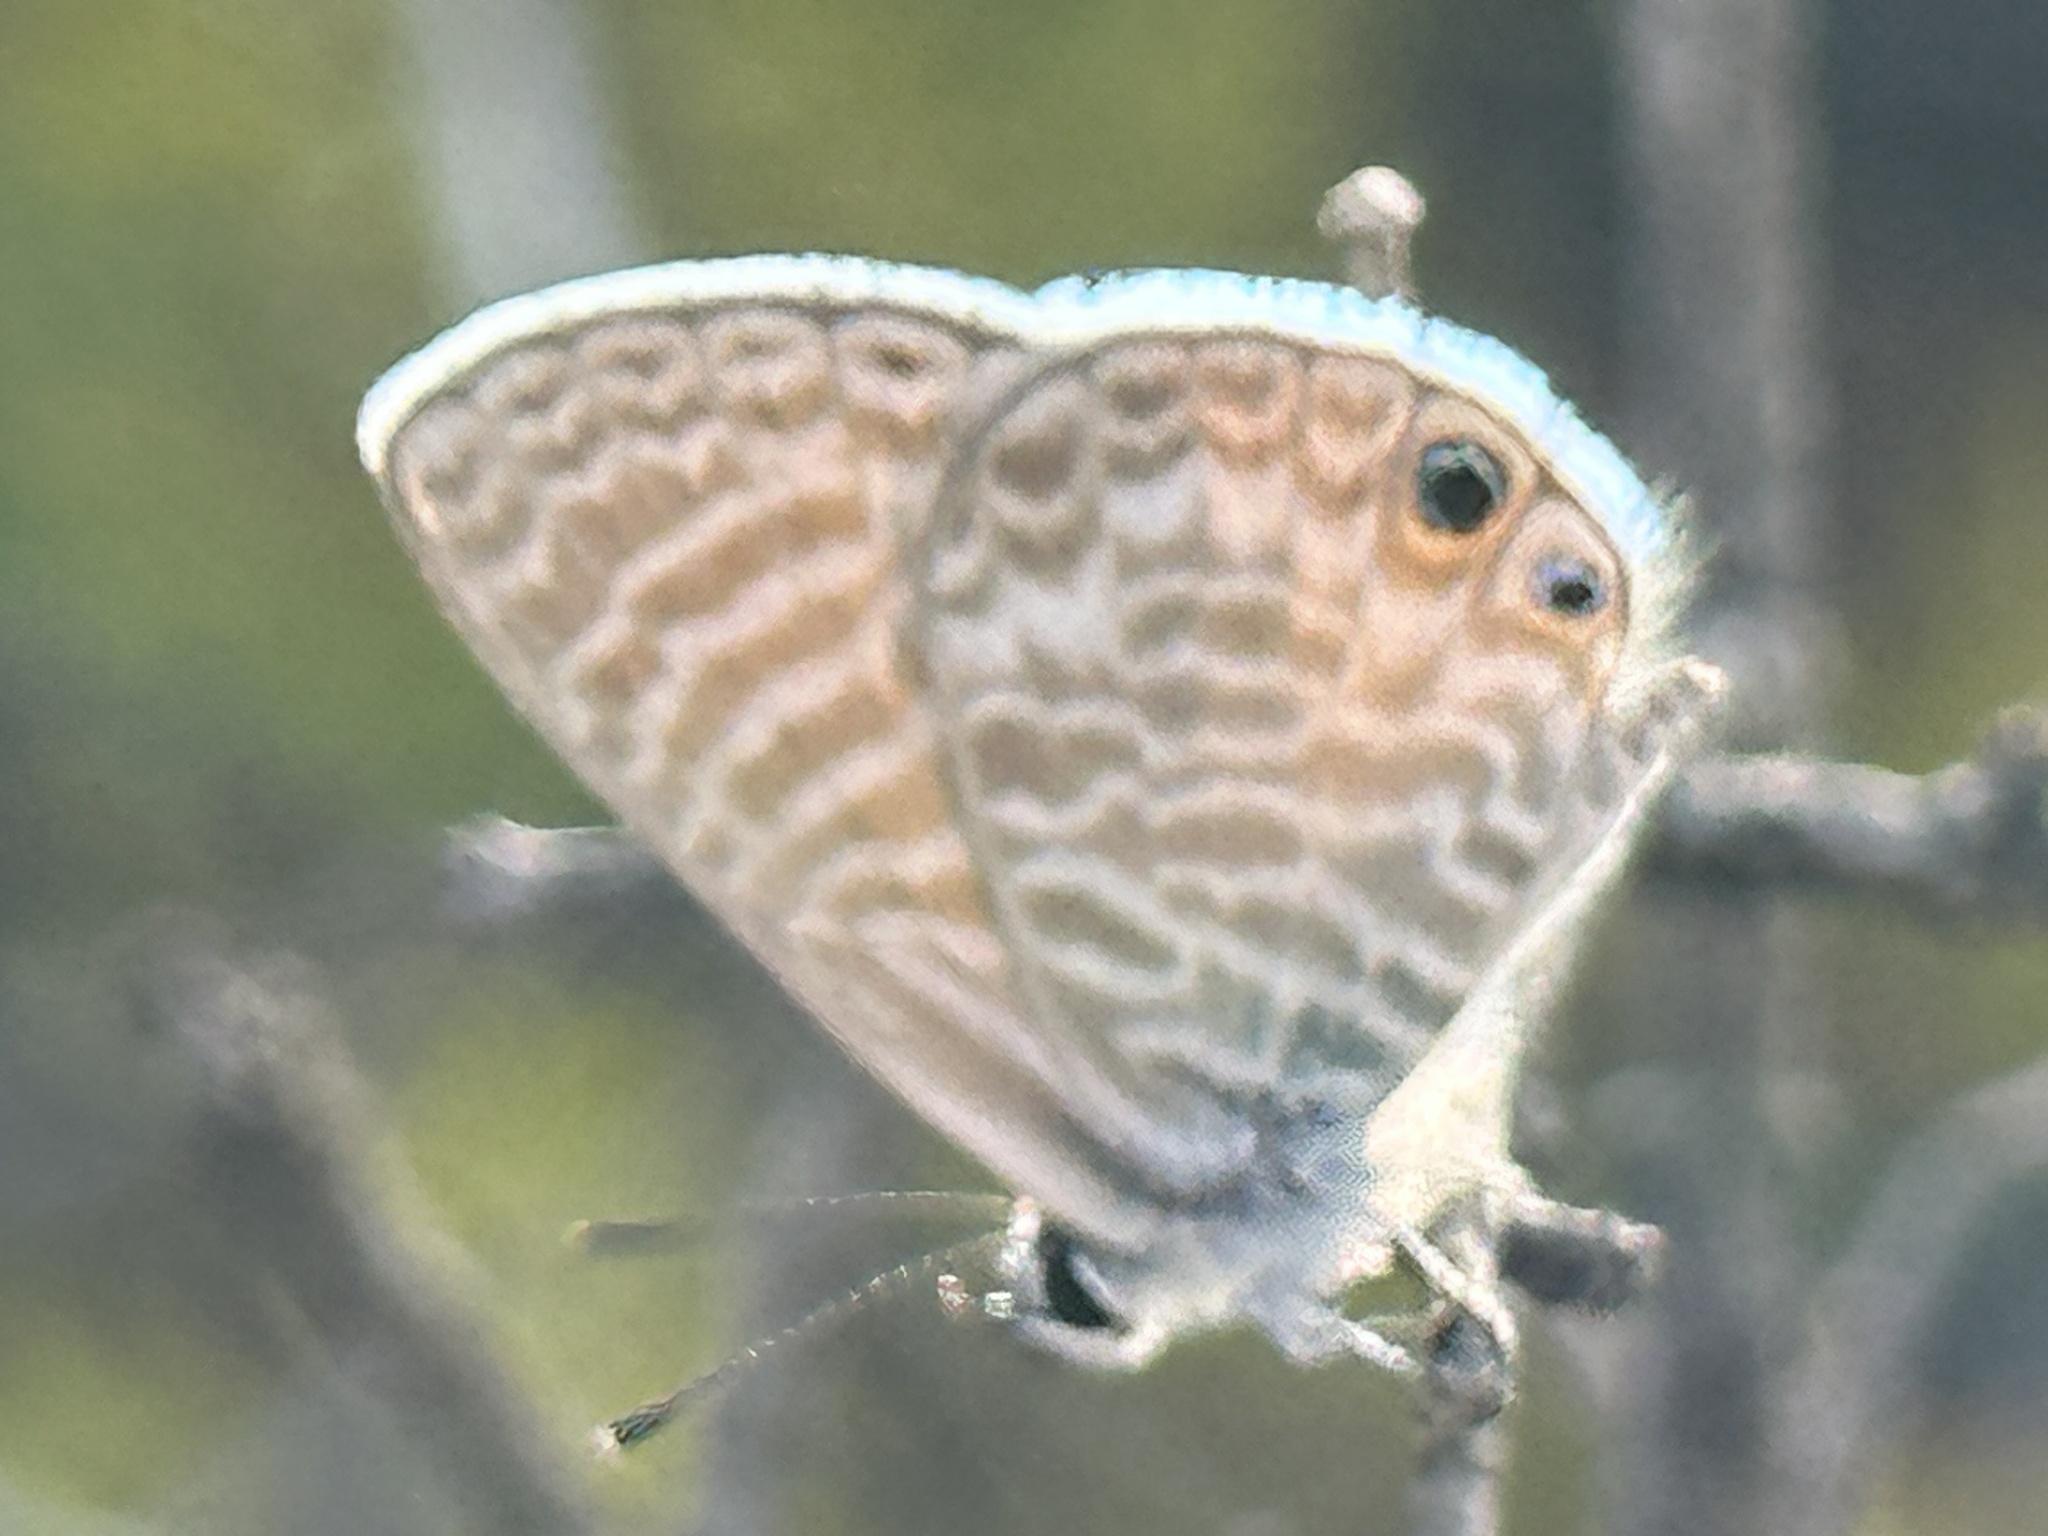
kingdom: Animalia
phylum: Arthropoda
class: Insecta
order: Lepidoptera
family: Lycaenidae
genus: Leptotes
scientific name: Leptotes marina
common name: Marine blue
